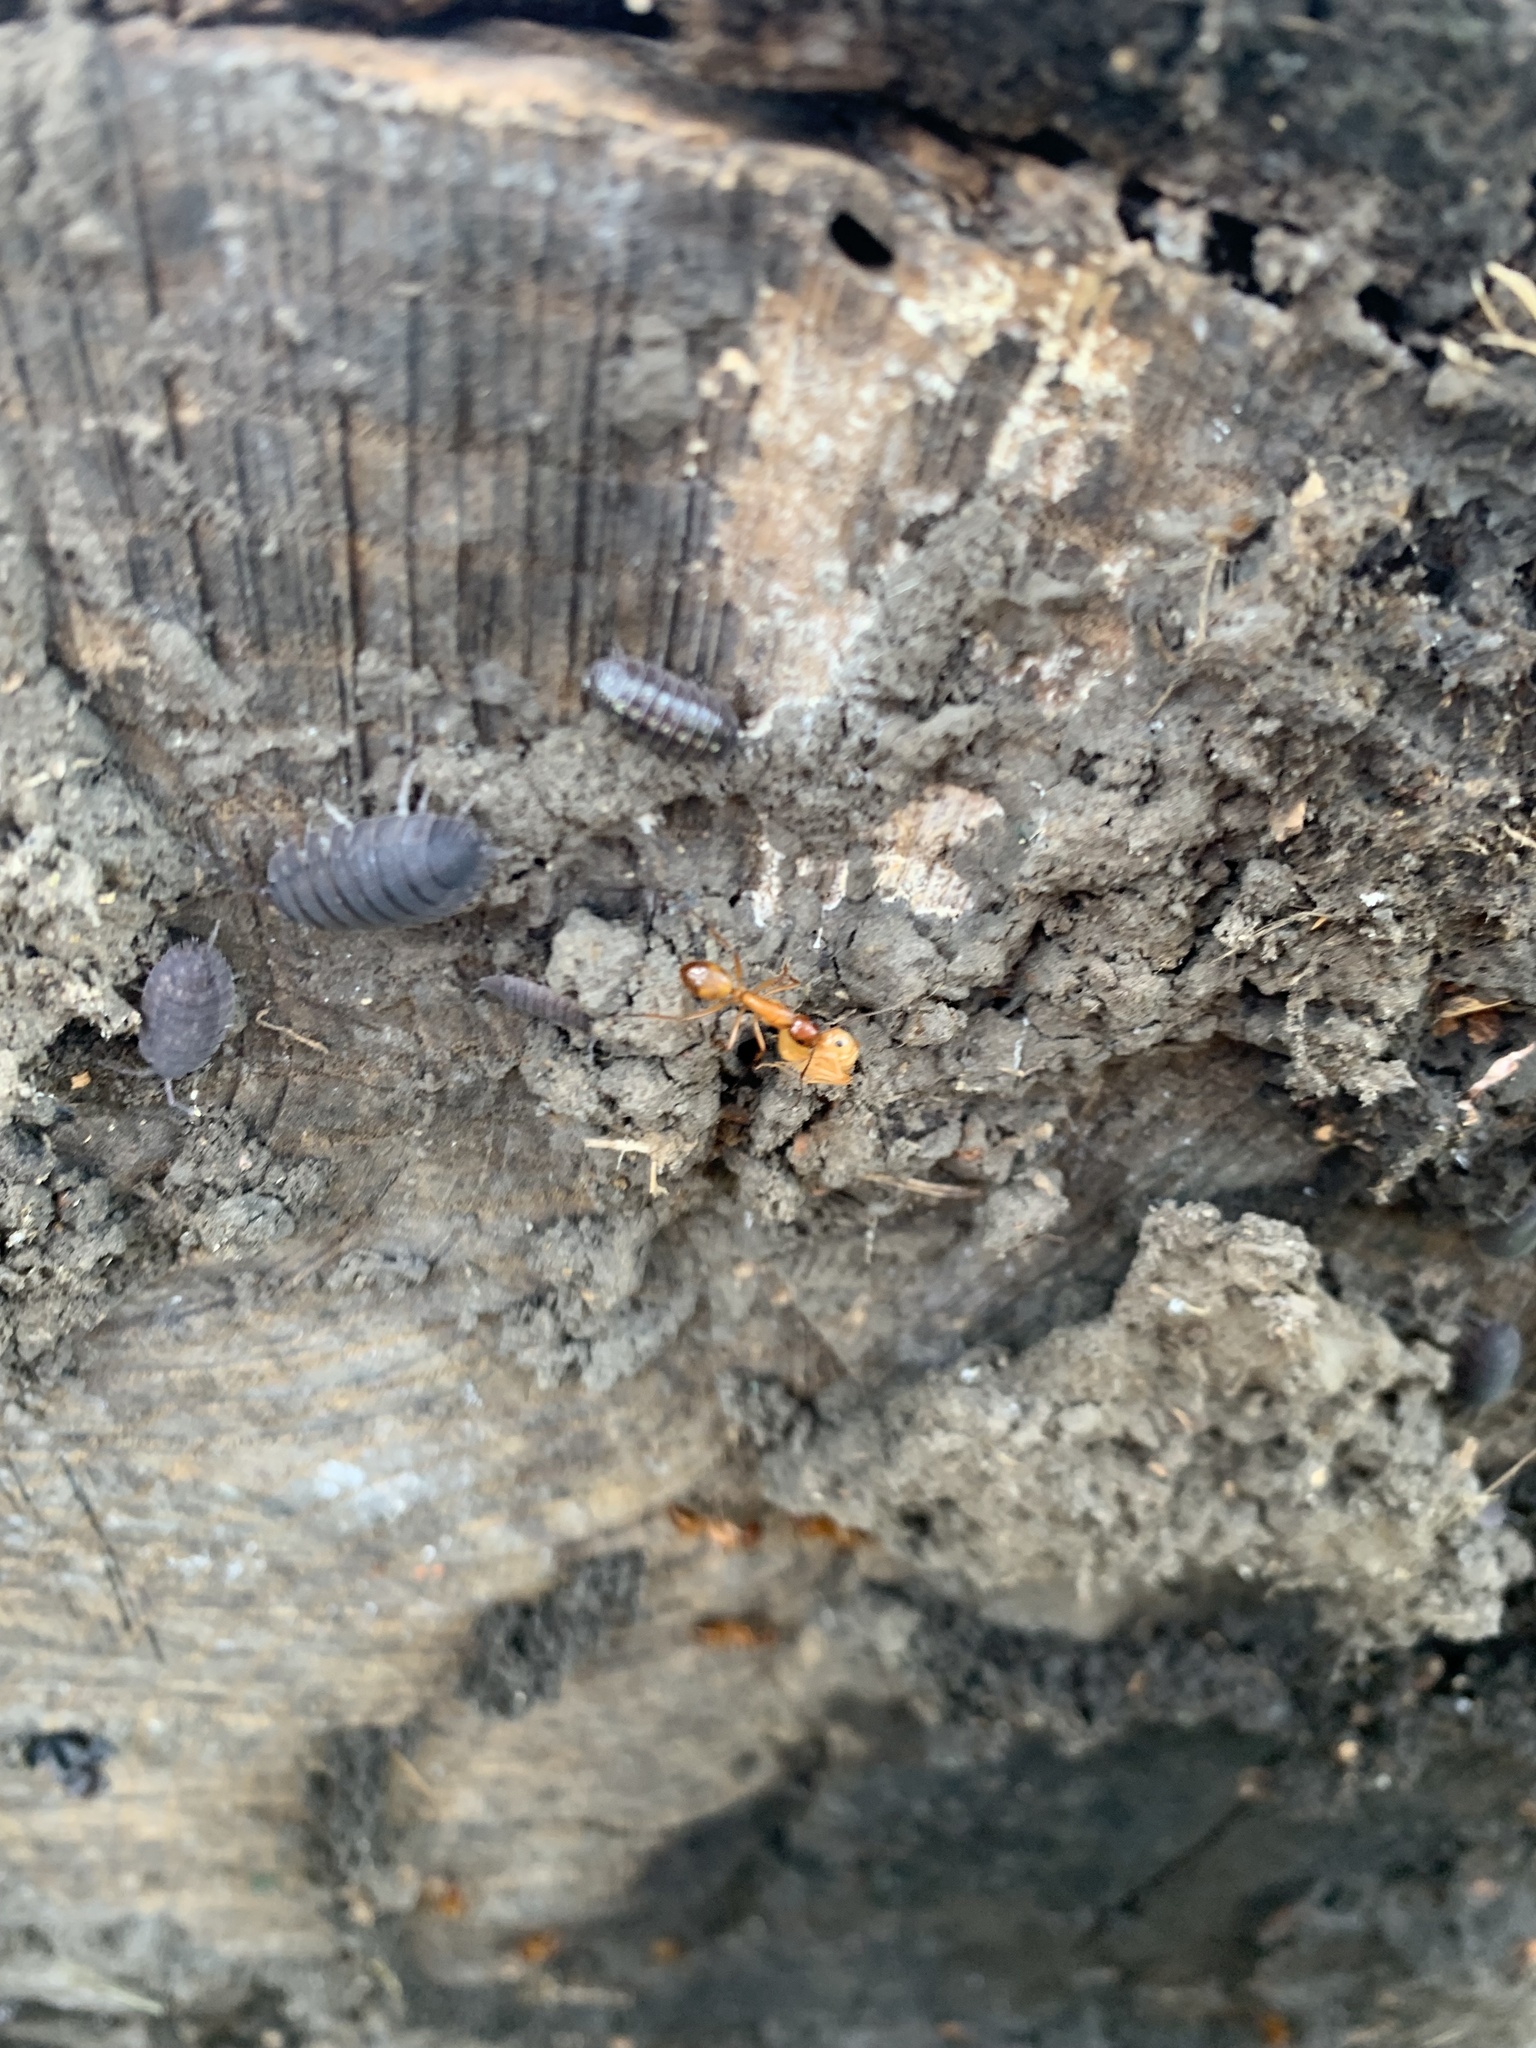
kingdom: Animalia
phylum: Arthropoda
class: Insecta
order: Hymenoptera
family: Formicidae
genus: Camponotus
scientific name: Camponotus castaneus
